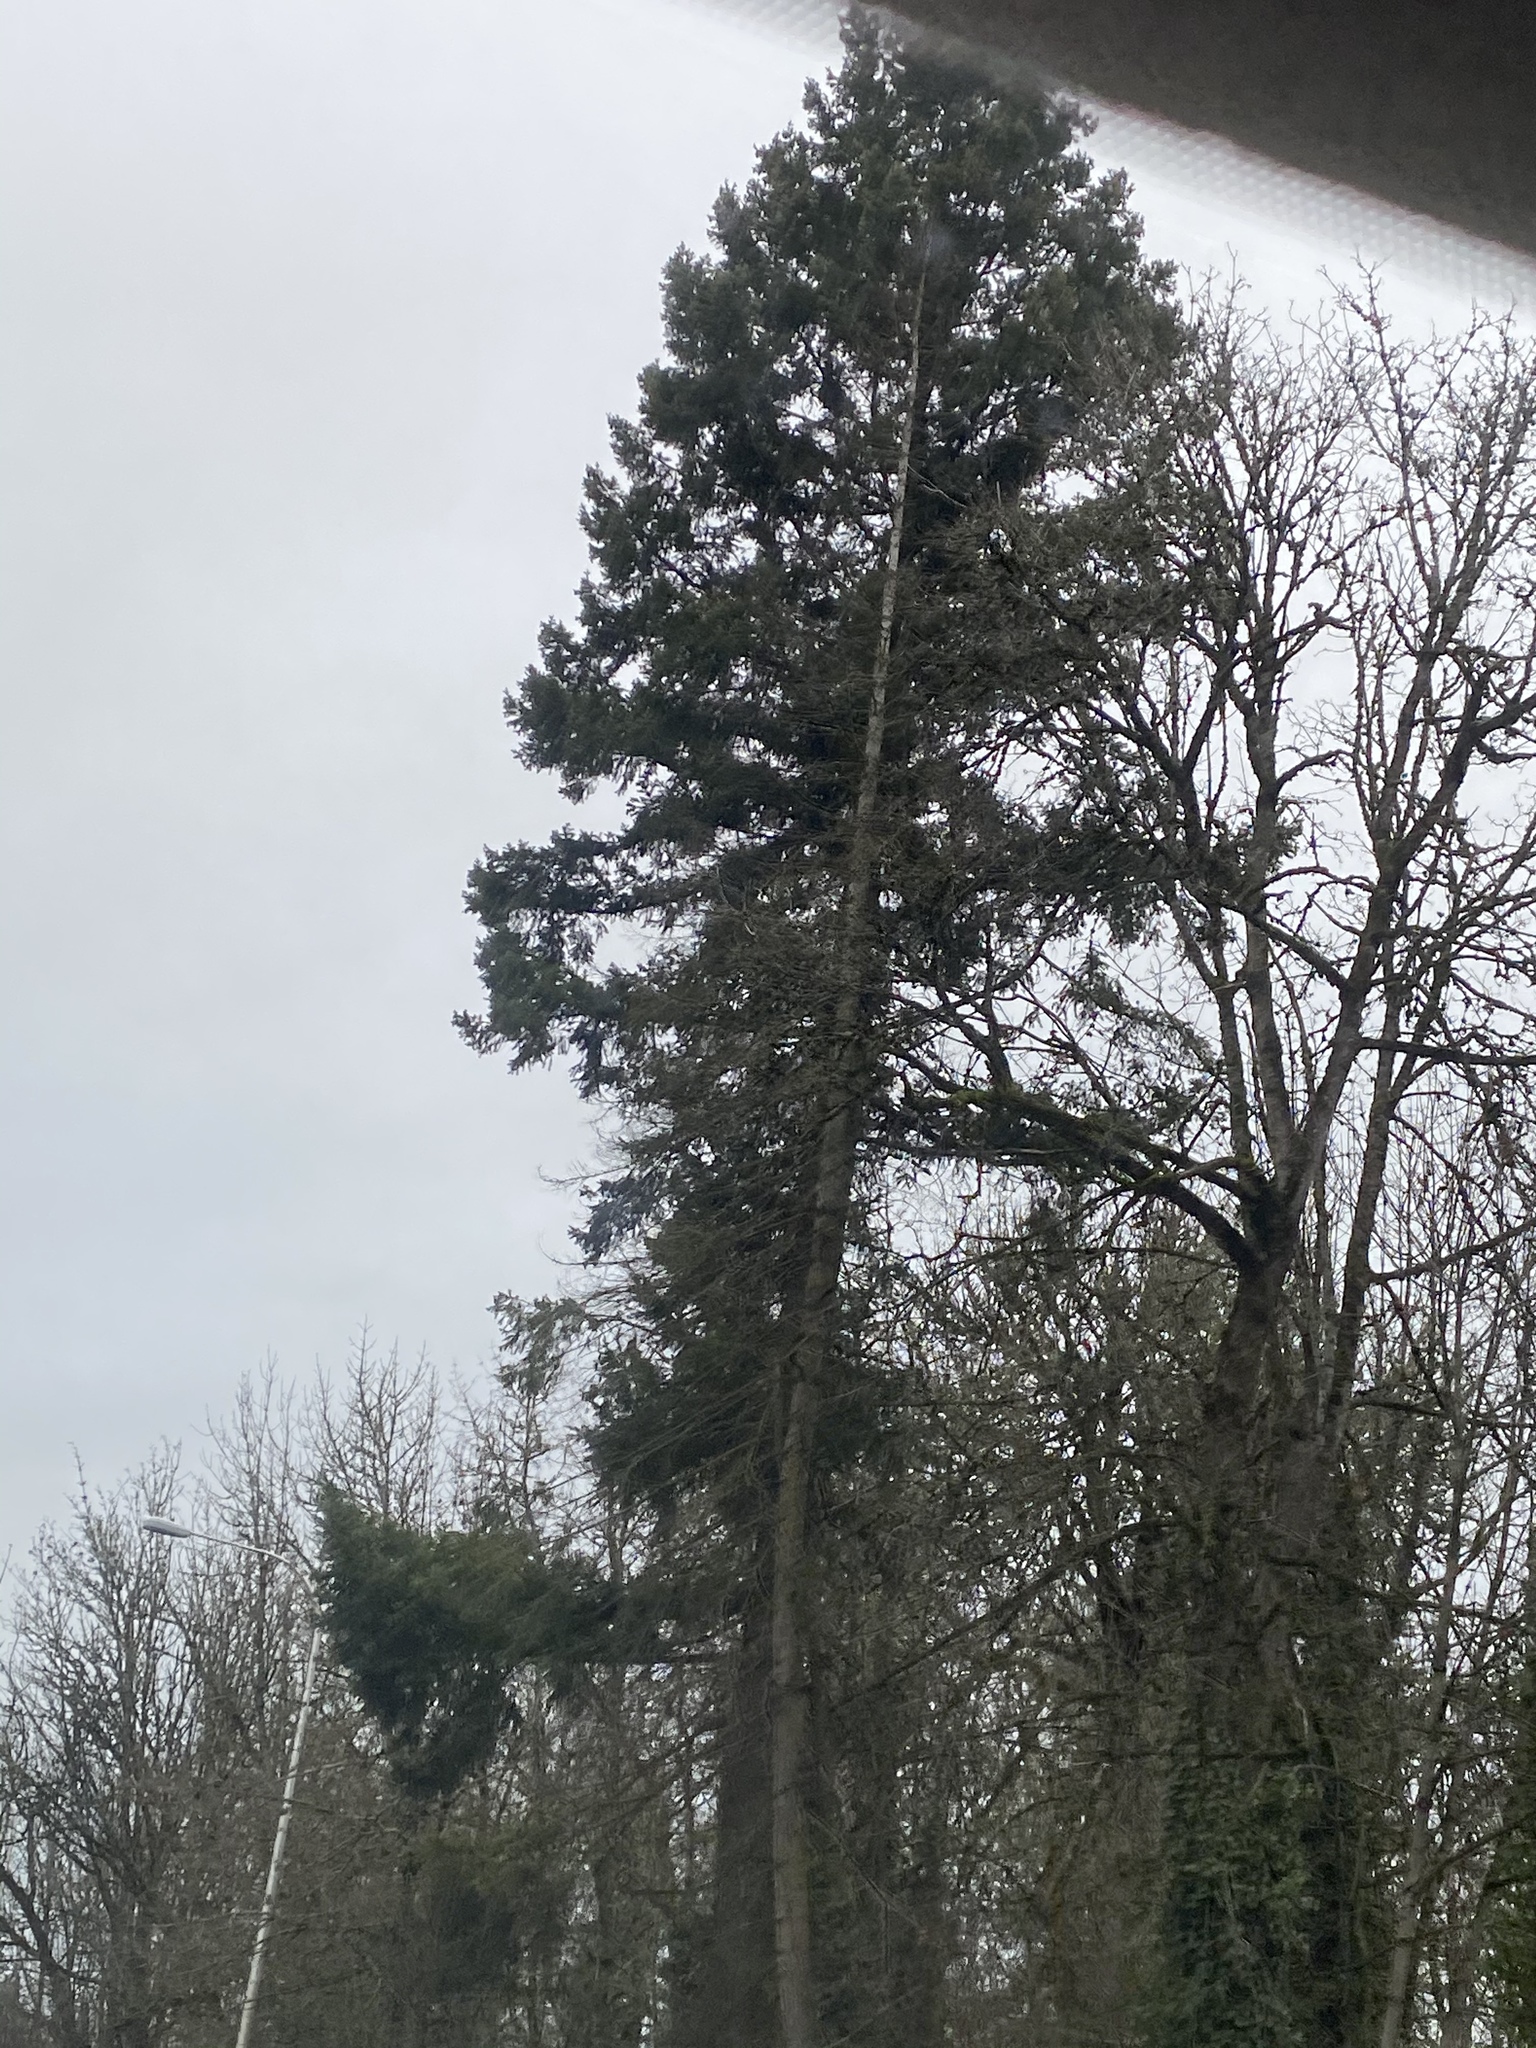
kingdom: Plantae
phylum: Tracheophyta
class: Pinopsida
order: Pinales
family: Pinaceae
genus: Pseudotsuga
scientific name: Pseudotsuga menziesii
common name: Douglas fir
